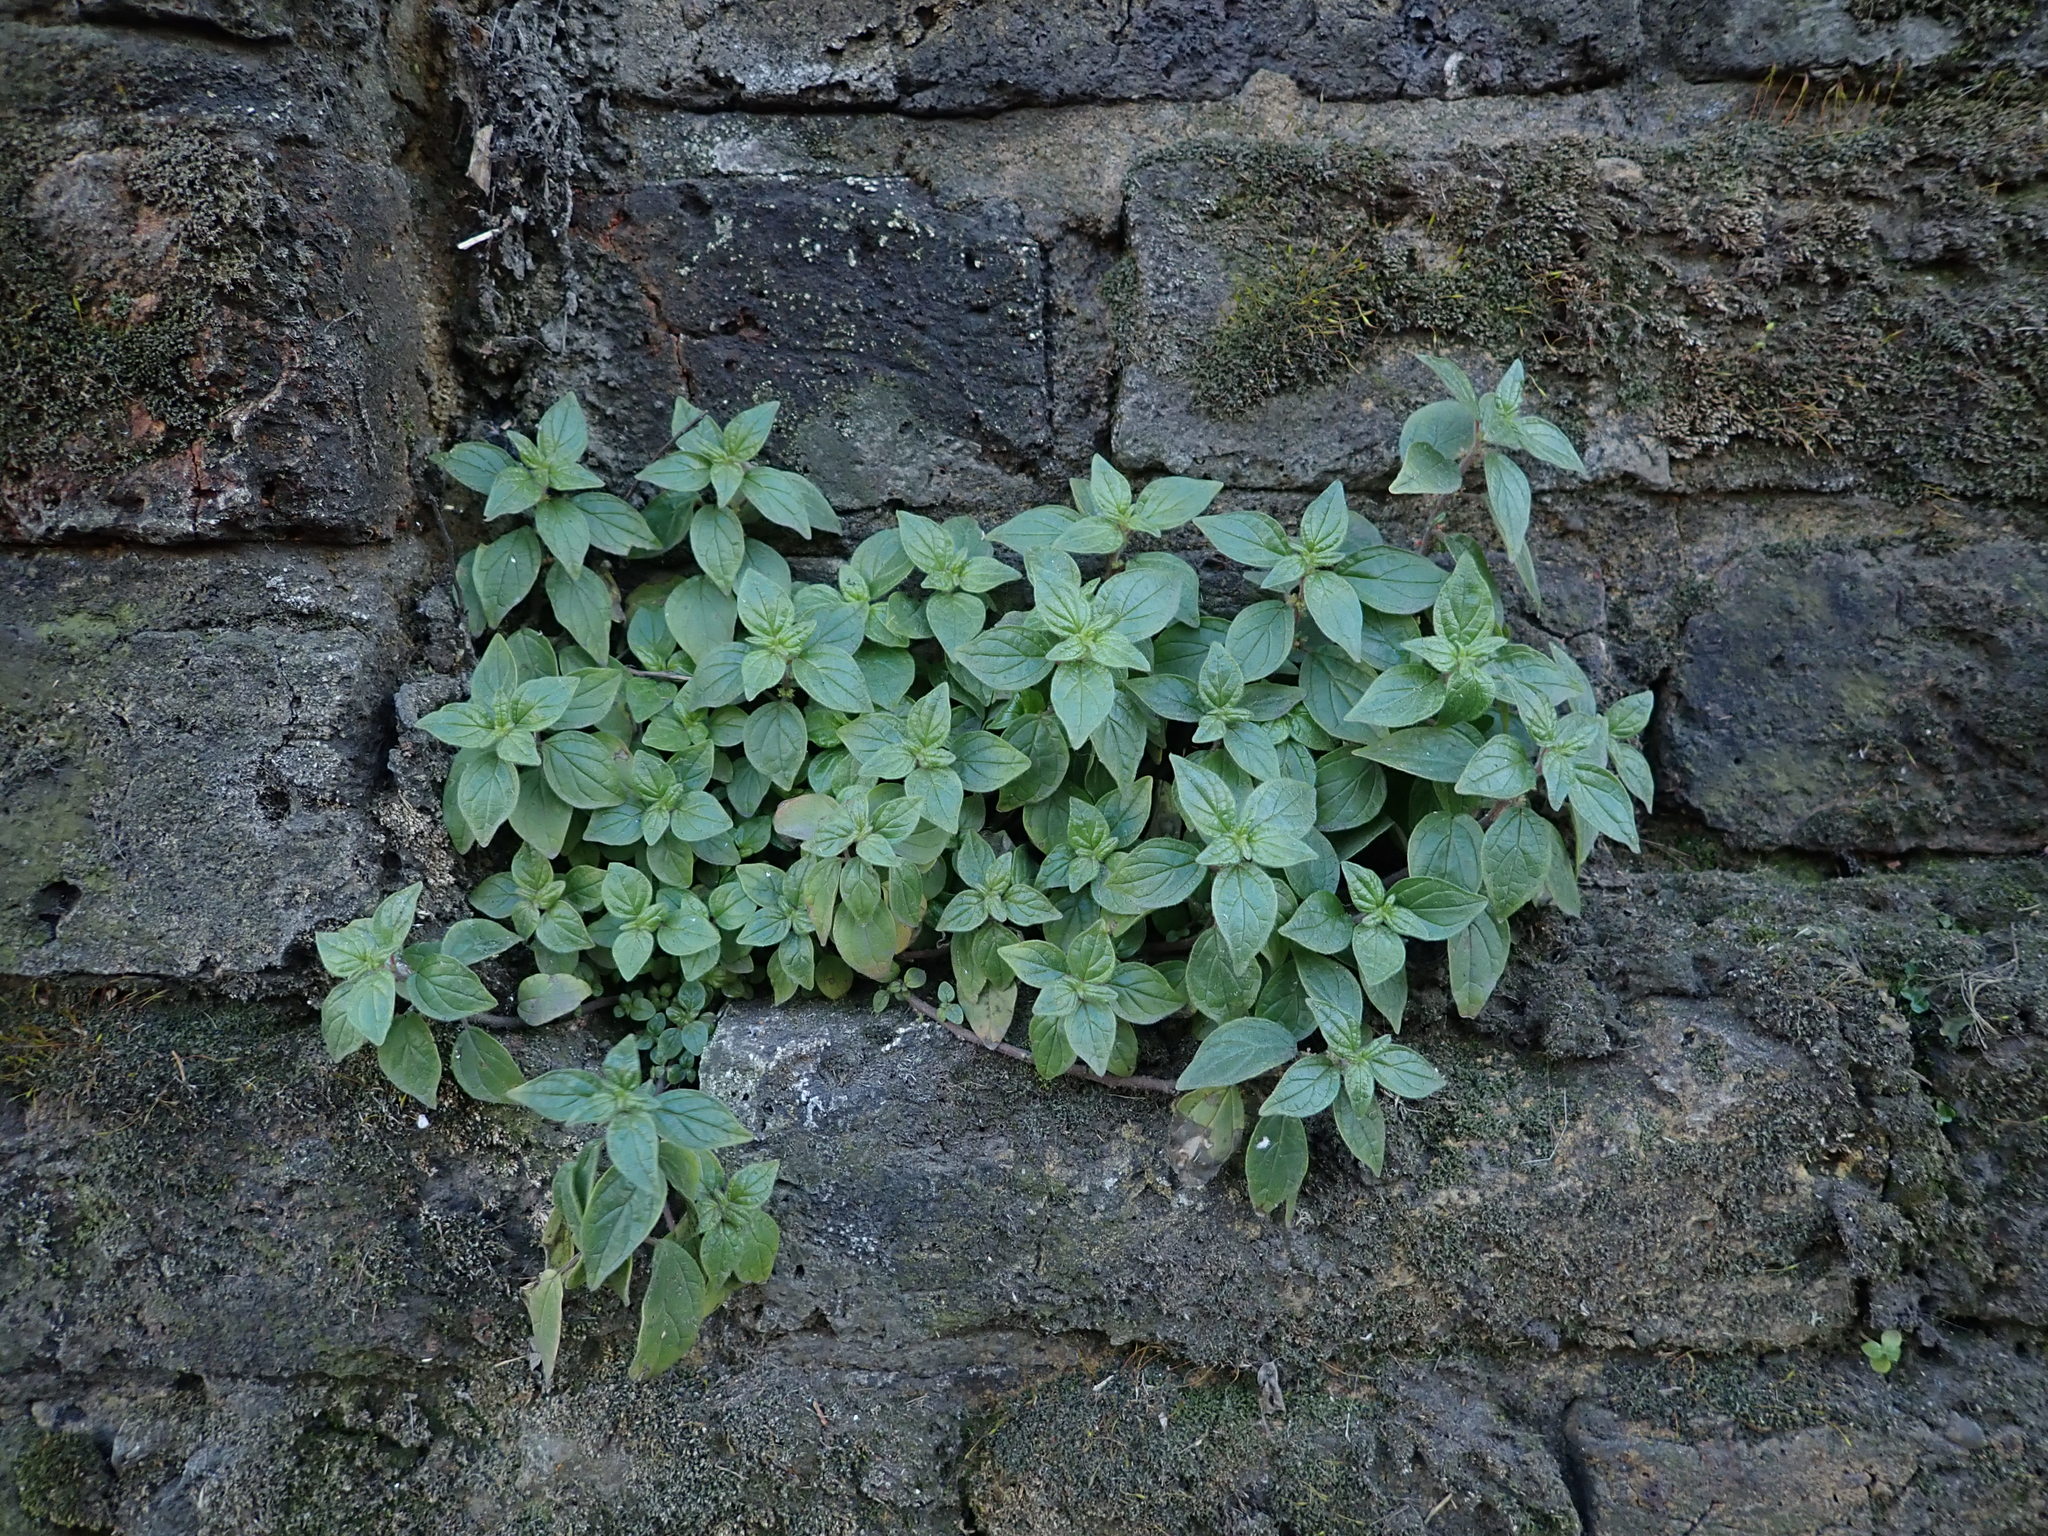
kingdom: Plantae
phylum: Tracheophyta
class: Magnoliopsida
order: Rosales
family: Urticaceae
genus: Parietaria
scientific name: Parietaria judaica
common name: Pellitory-of-the-wall
